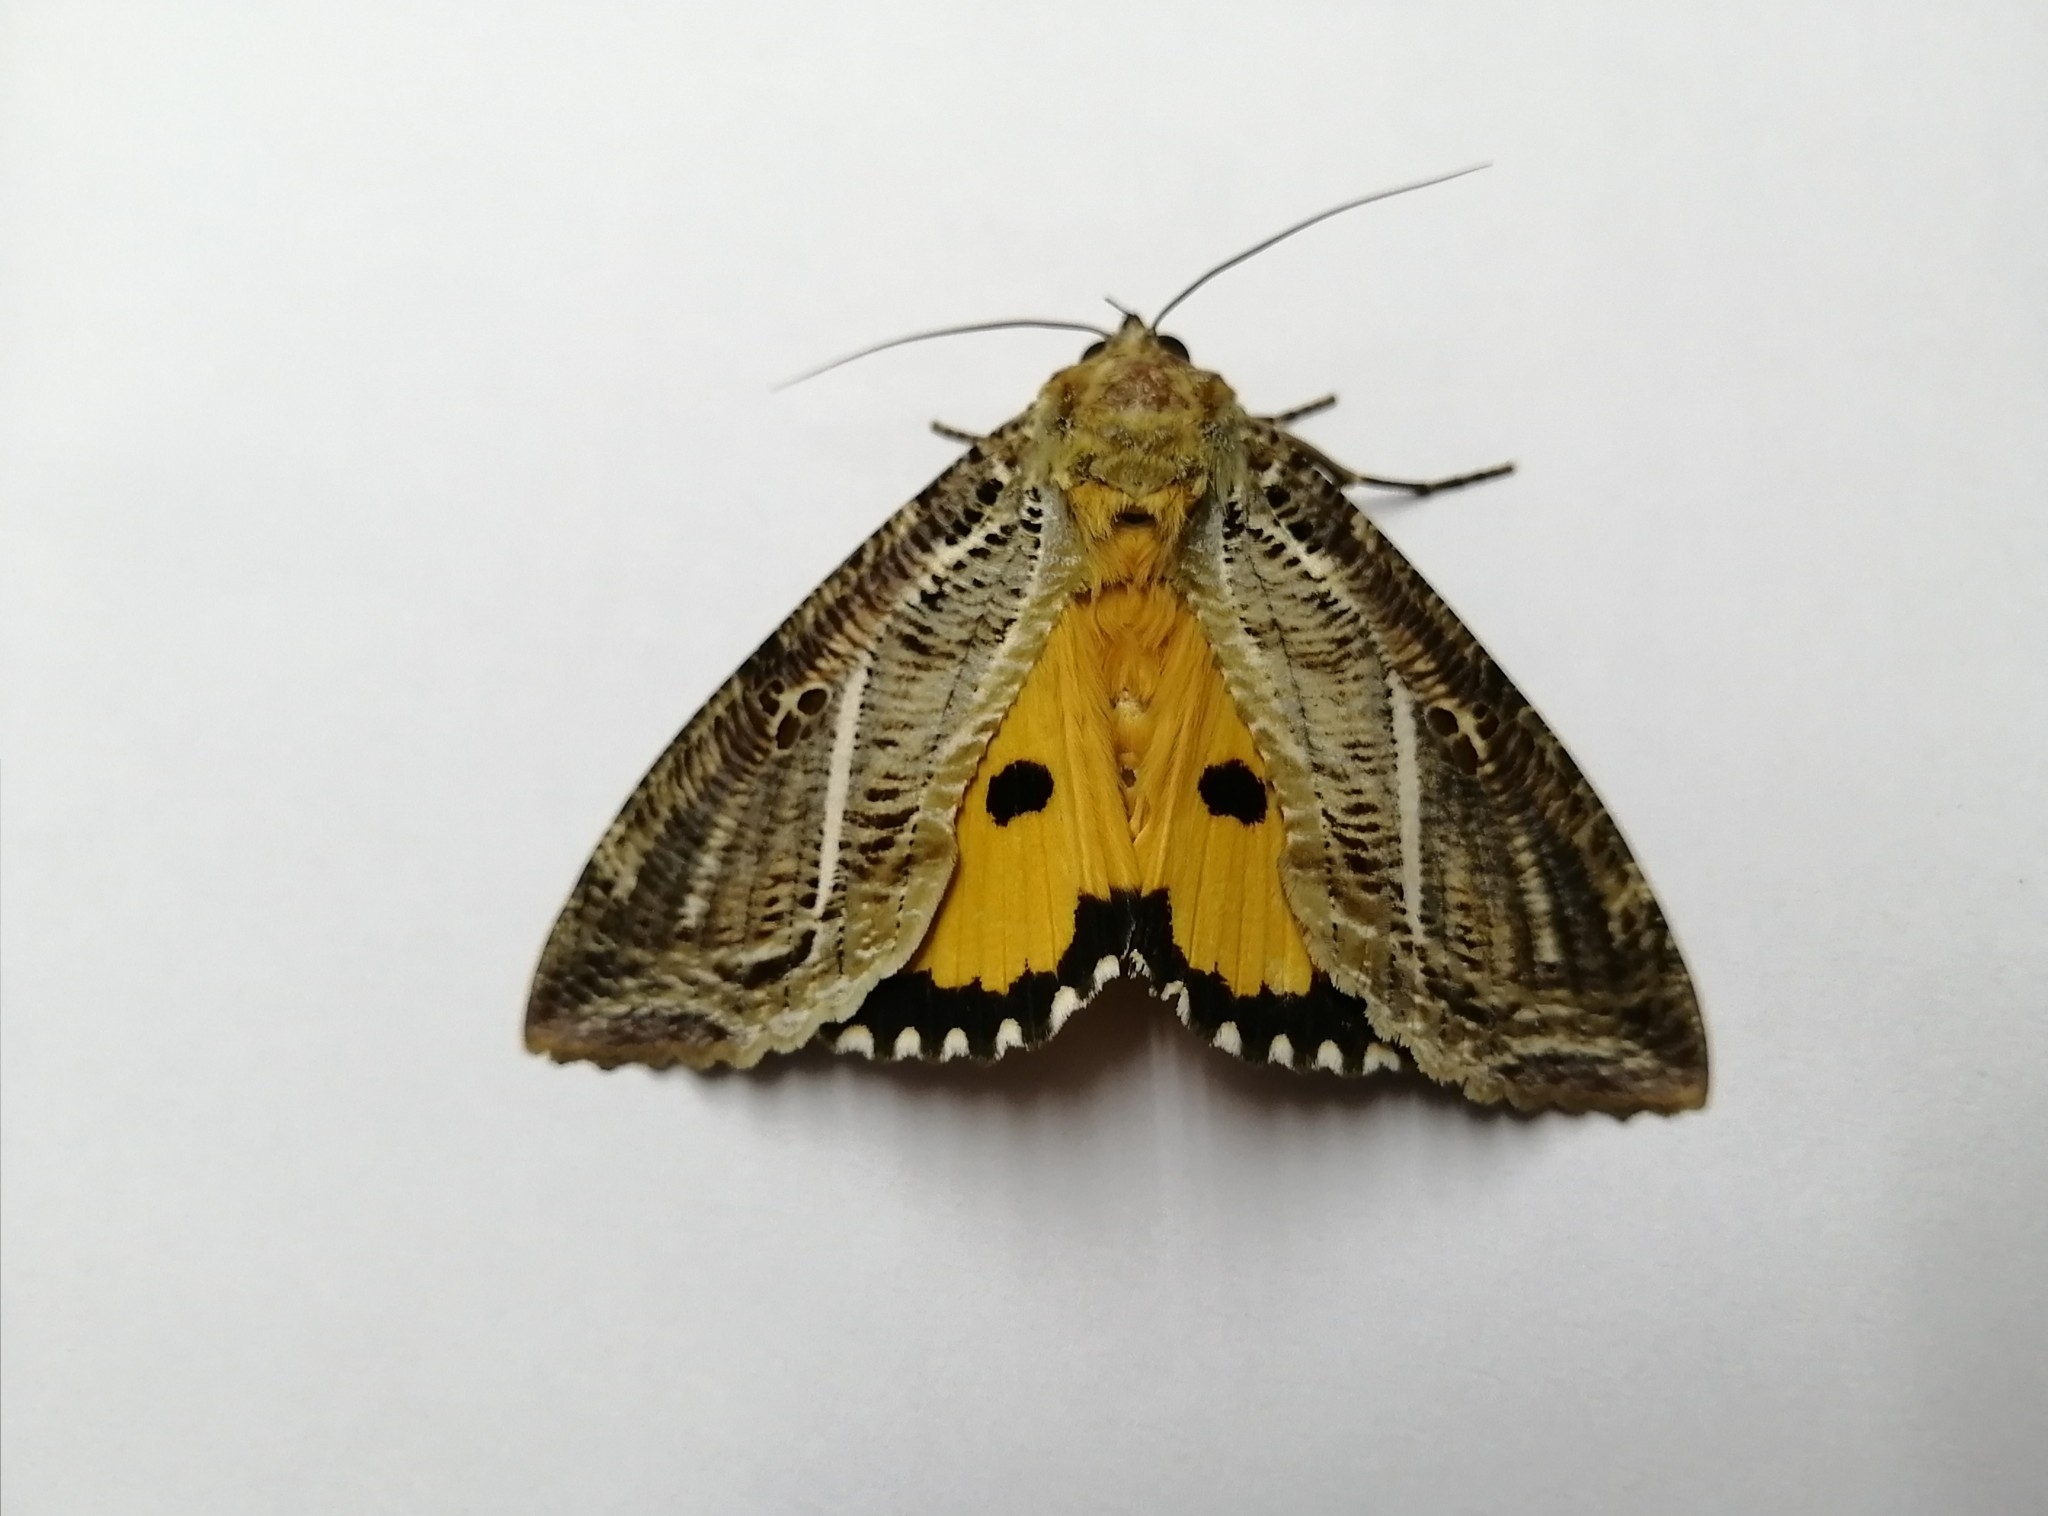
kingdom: Animalia
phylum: Arthropoda
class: Insecta
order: Lepidoptera
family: Erebidae
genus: Eudocima
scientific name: Eudocima materna
